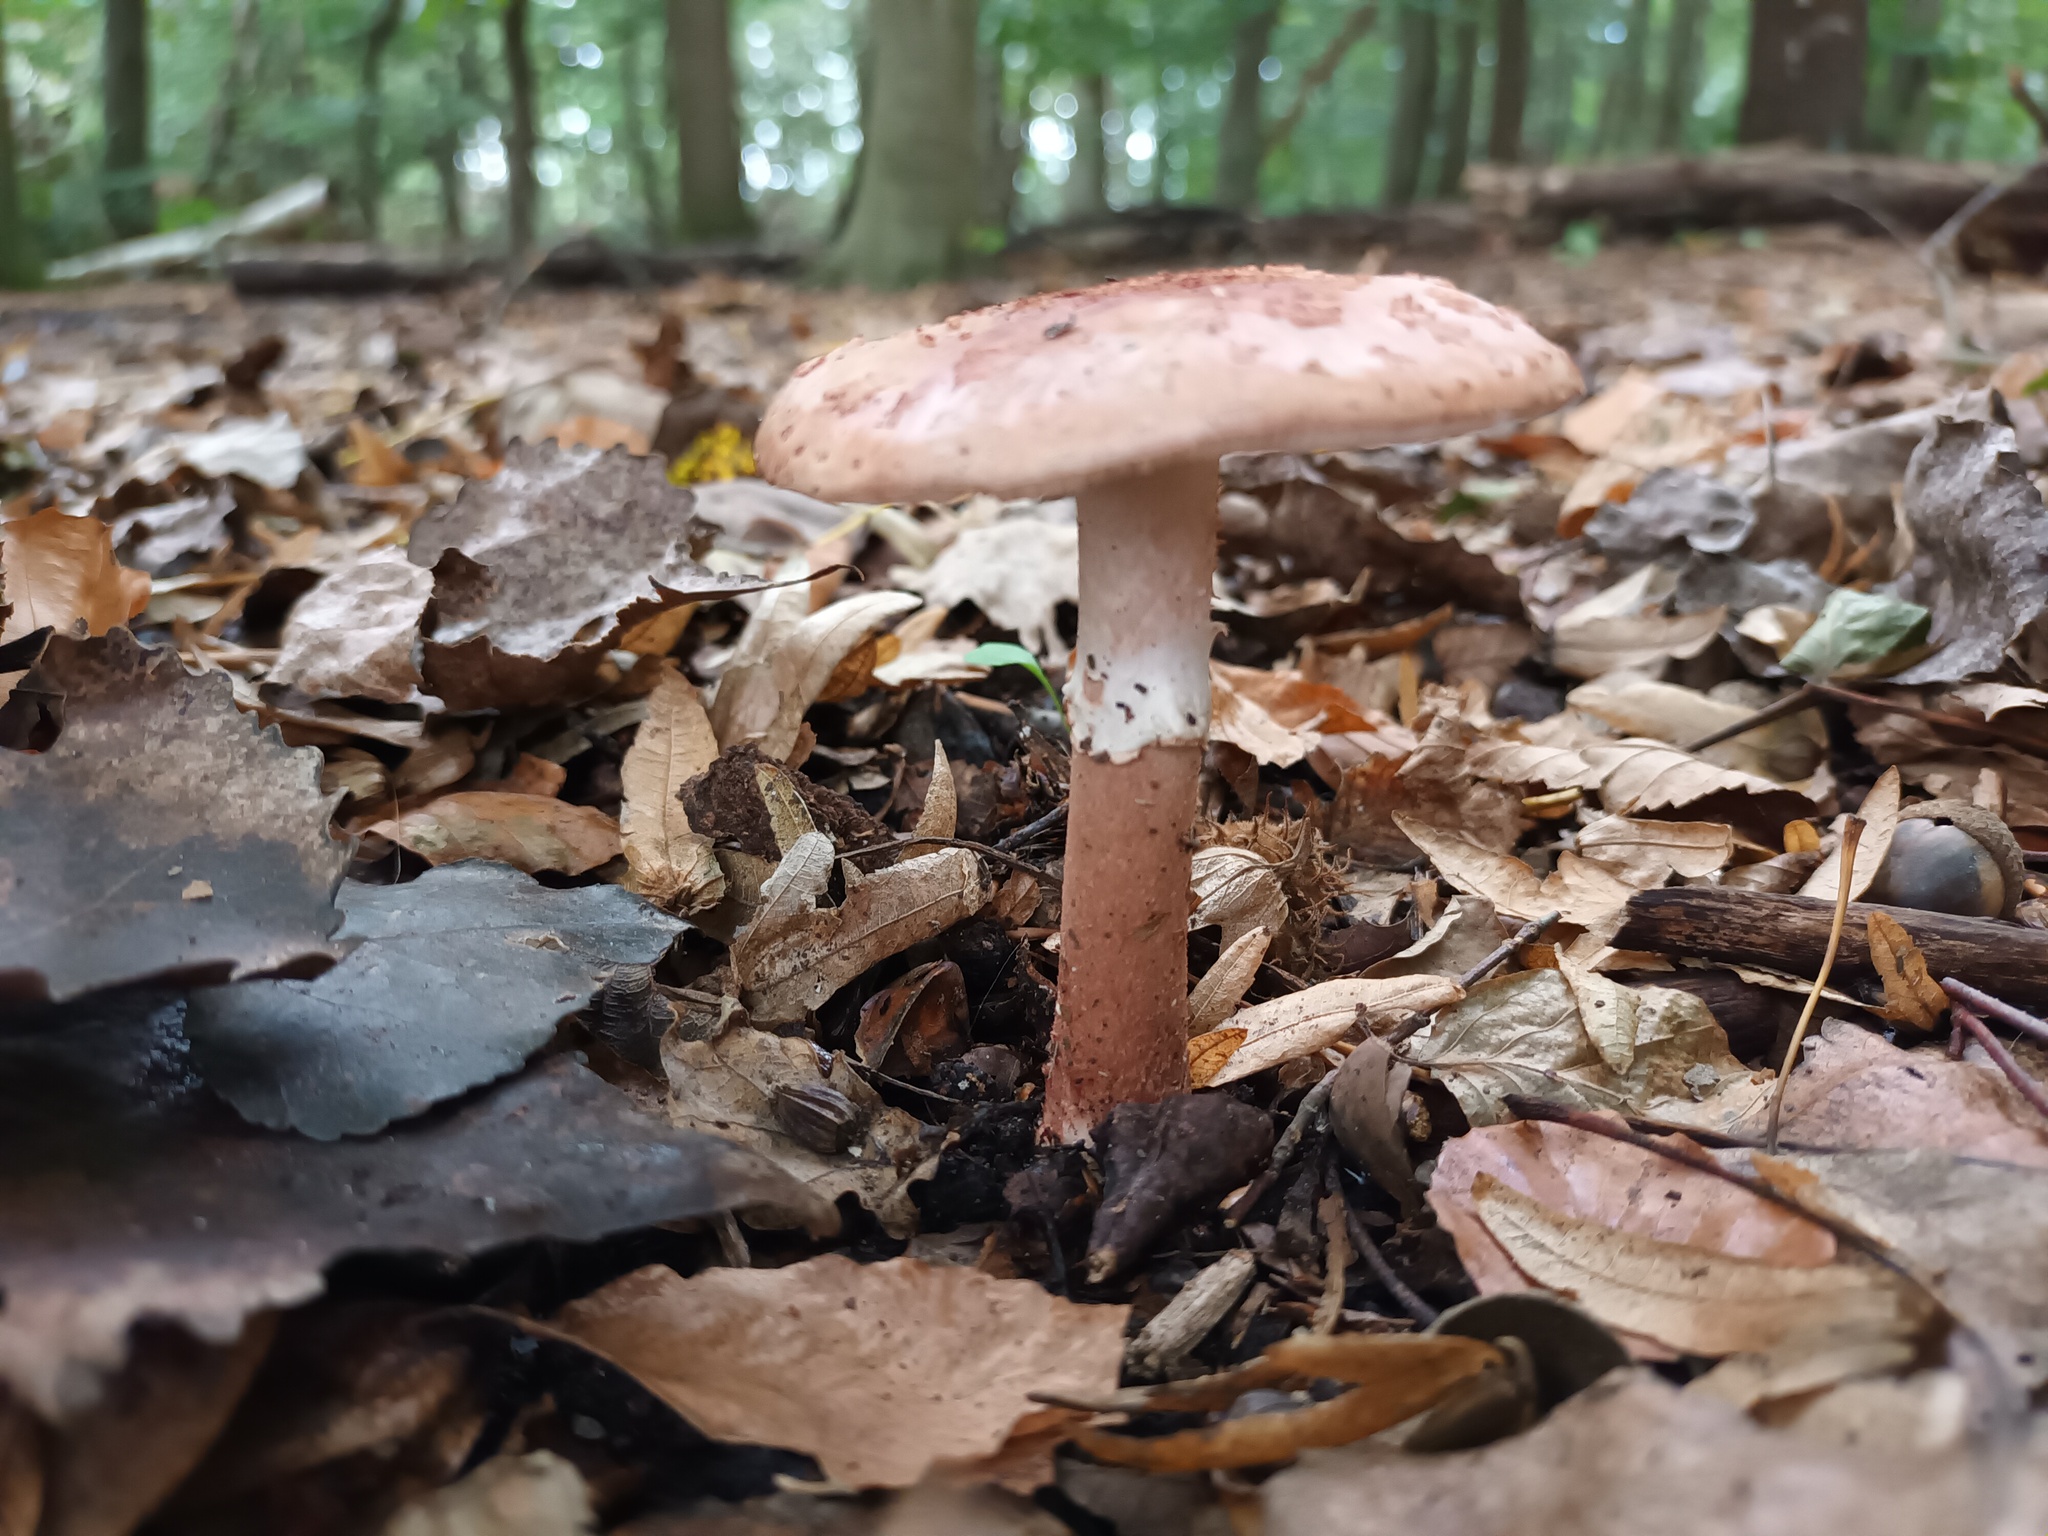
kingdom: Fungi
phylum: Basidiomycota
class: Agaricomycetes
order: Agaricales
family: Amanitaceae
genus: Amanita
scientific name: Amanita rubescens
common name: Blusher
